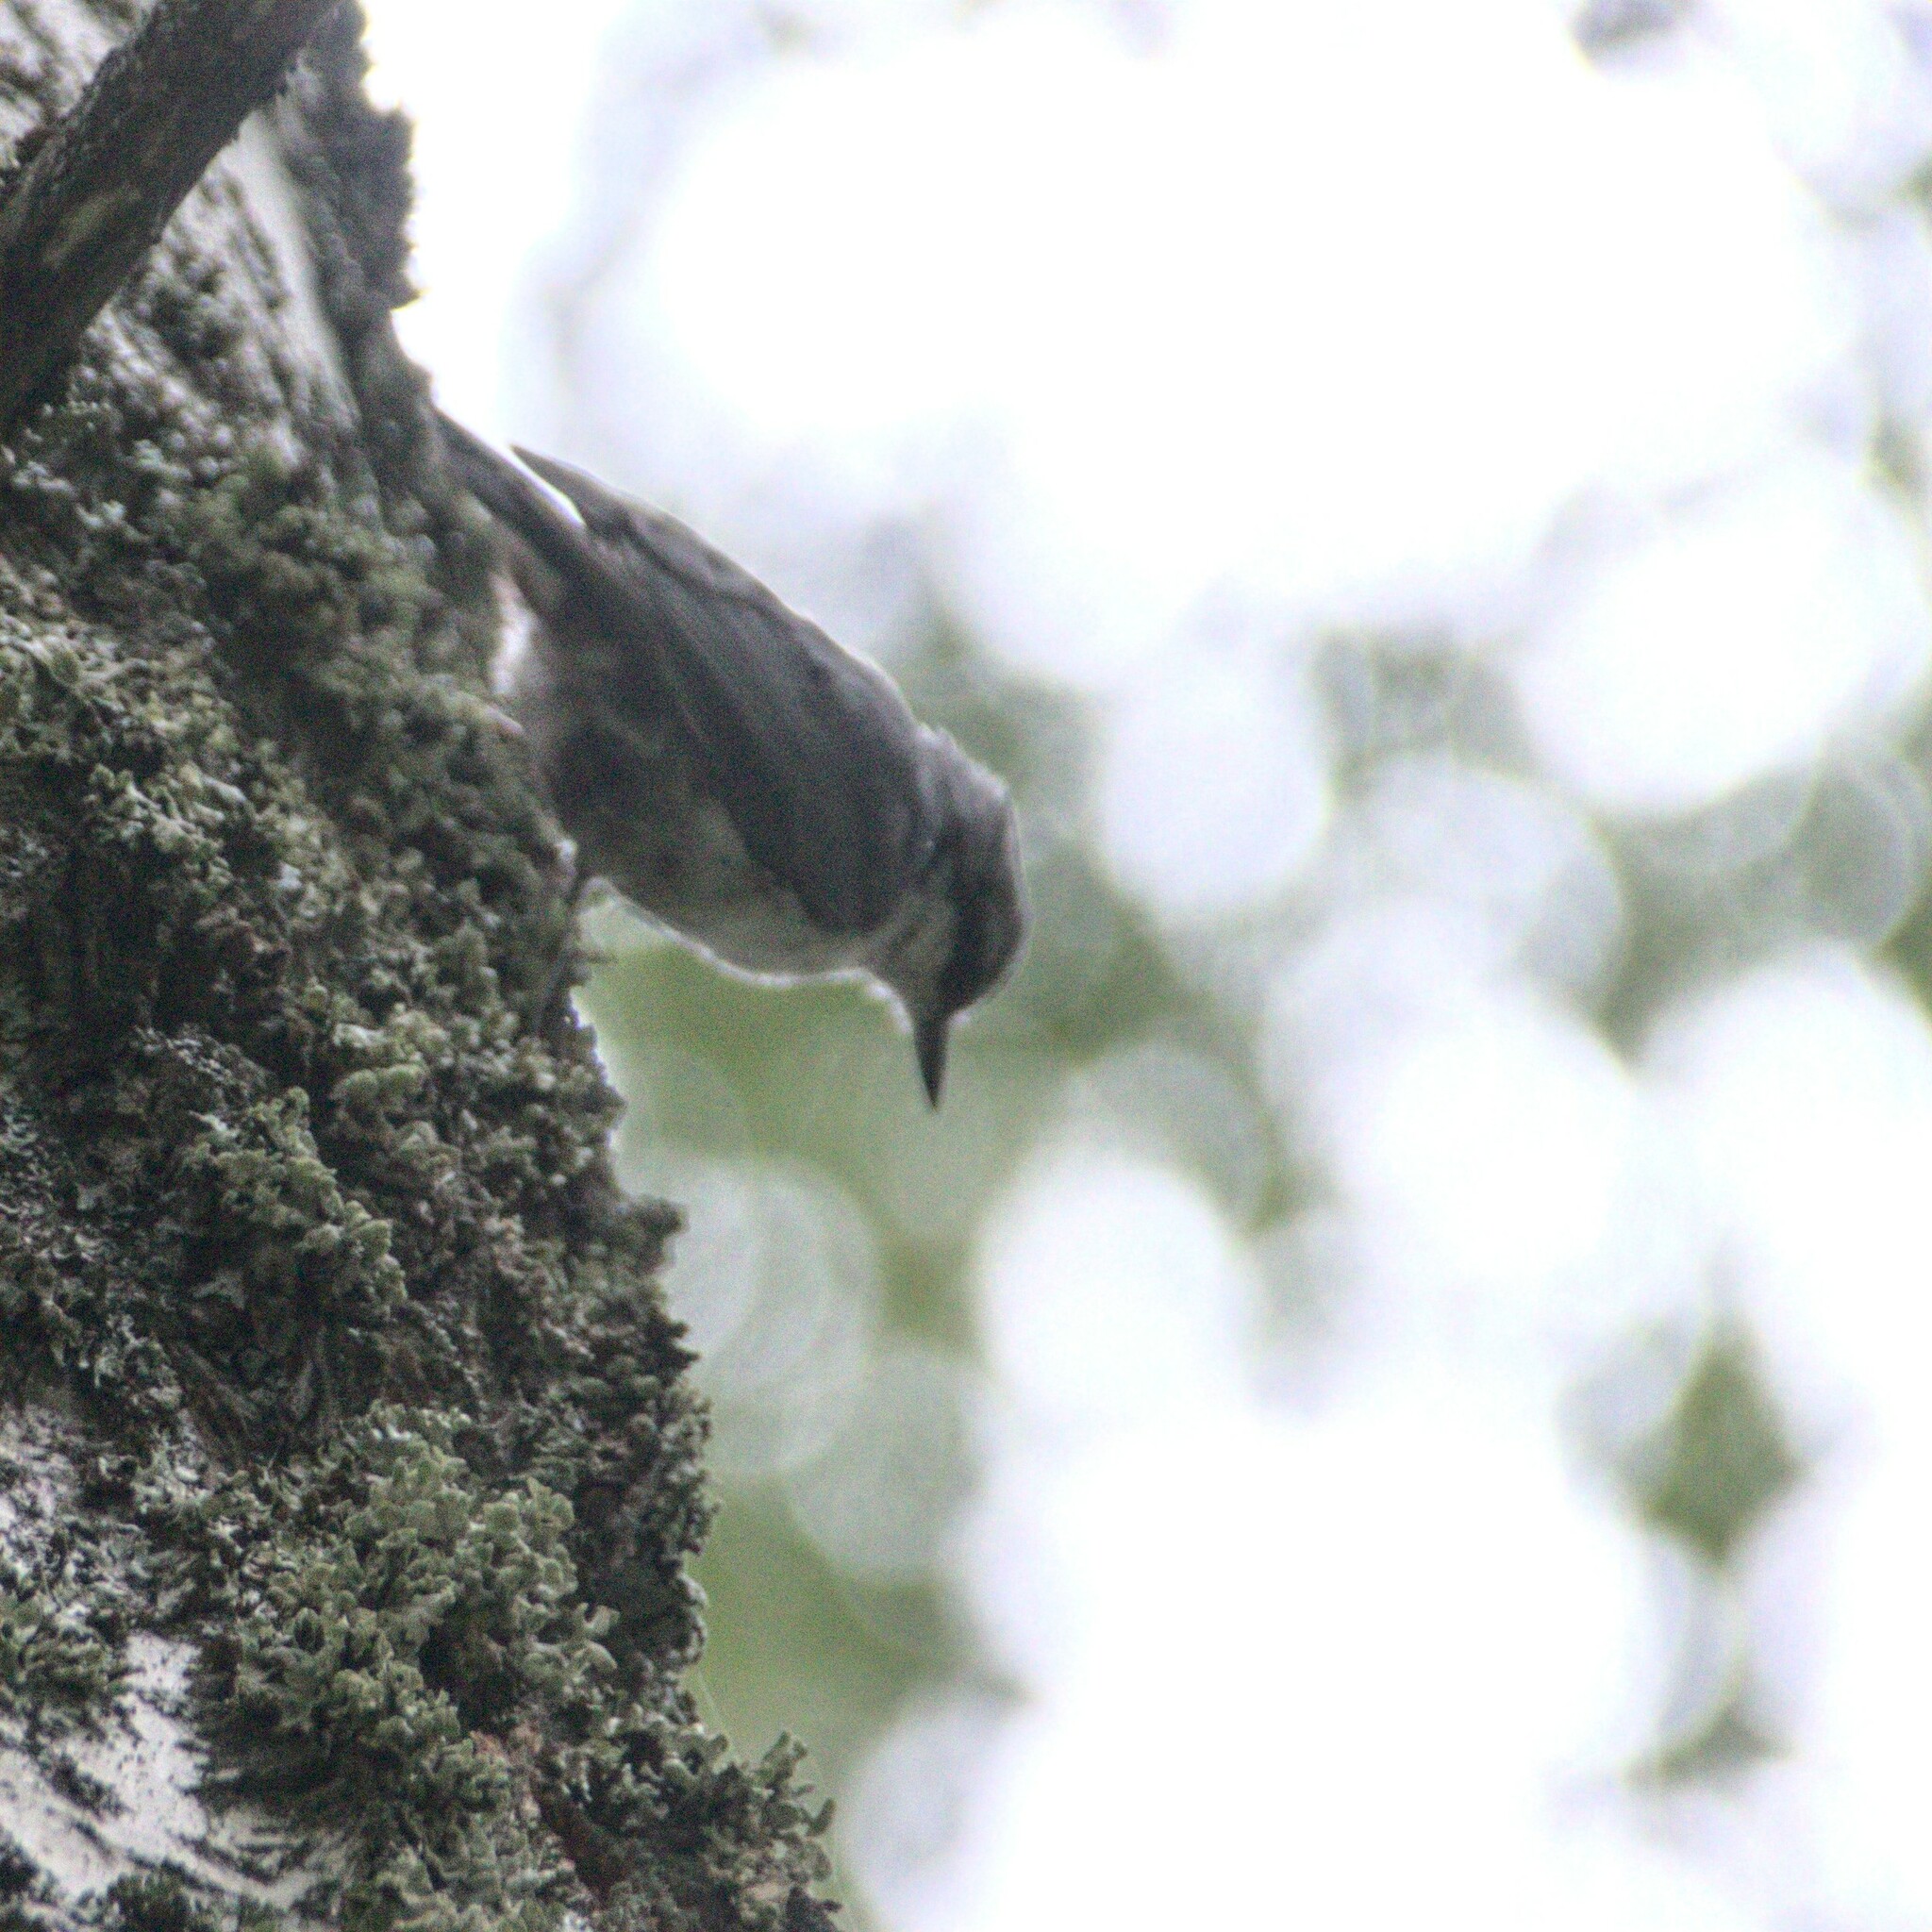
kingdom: Animalia
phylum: Chordata
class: Aves
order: Passeriformes
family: Sittidae
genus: Sitta
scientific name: Sitta europaea
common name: Eurasian nuthatch
